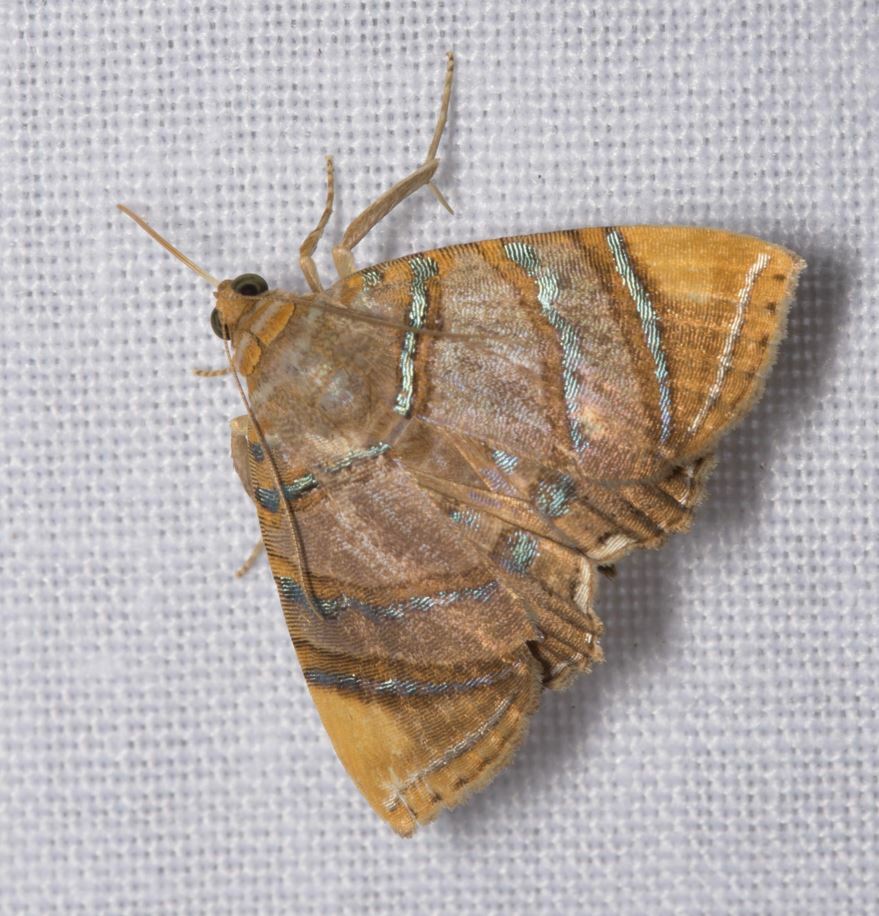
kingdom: Animalia
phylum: Arthropoda
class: Insecta
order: Lepidoptera
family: Erebidae
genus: Eulepidotis
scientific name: Eulepidotis flavipex
